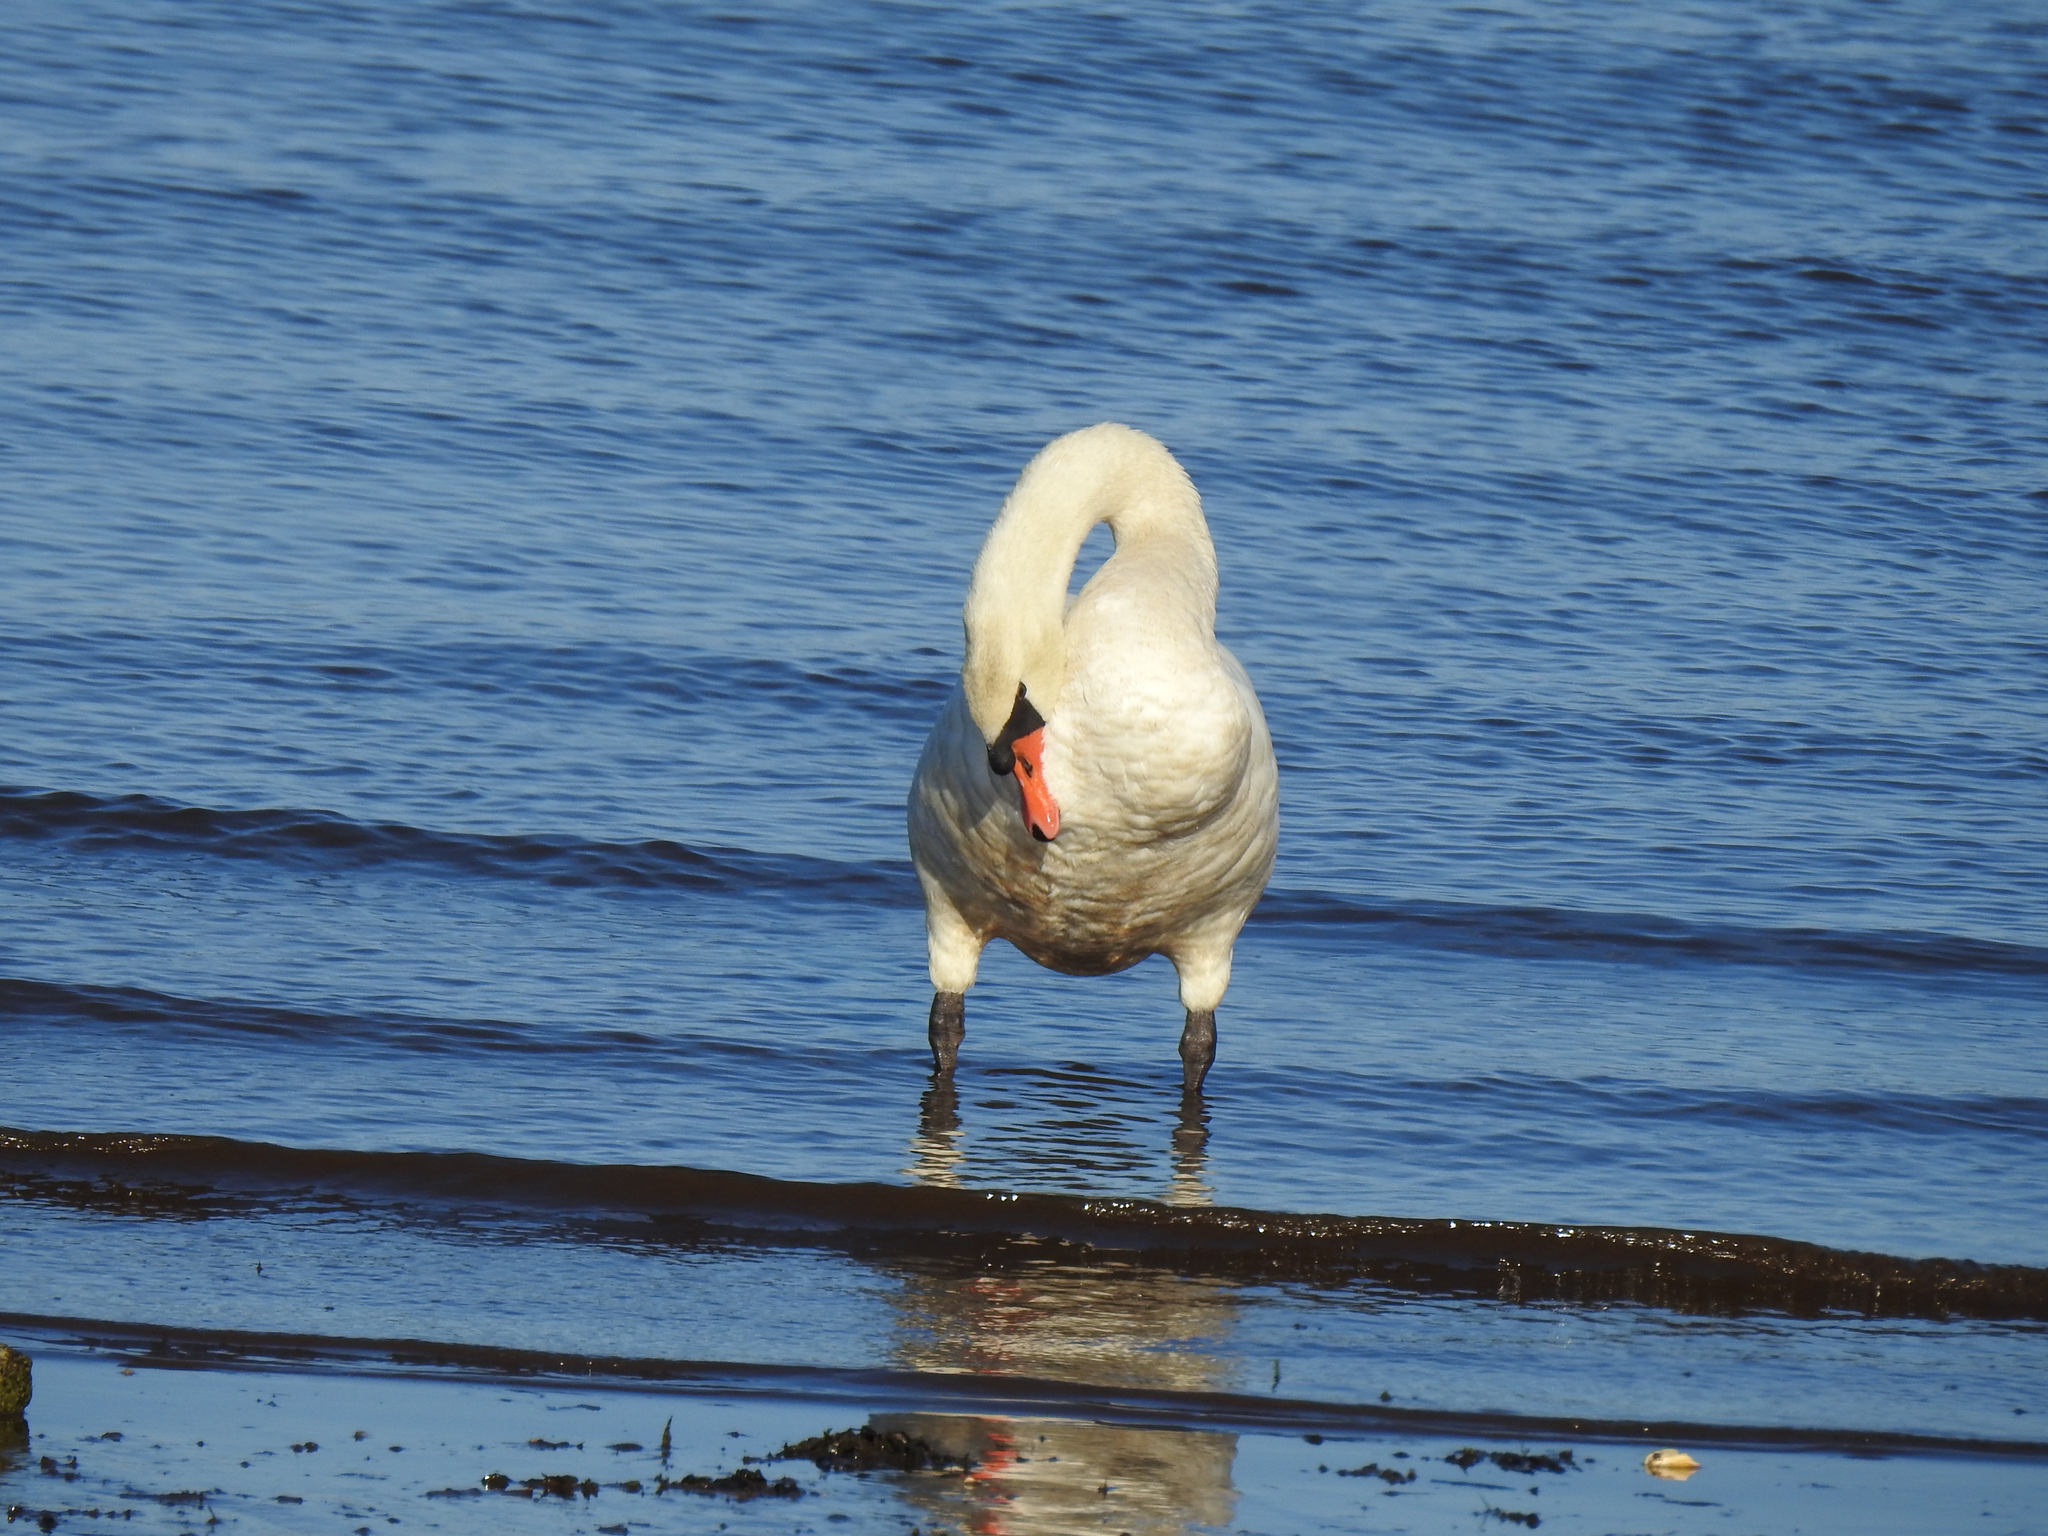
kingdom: Animalia
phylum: Chordata
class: Aves
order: Anseriformes
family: Anatidae
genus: Cygnus
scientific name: Cygnus olor
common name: Mute swan
